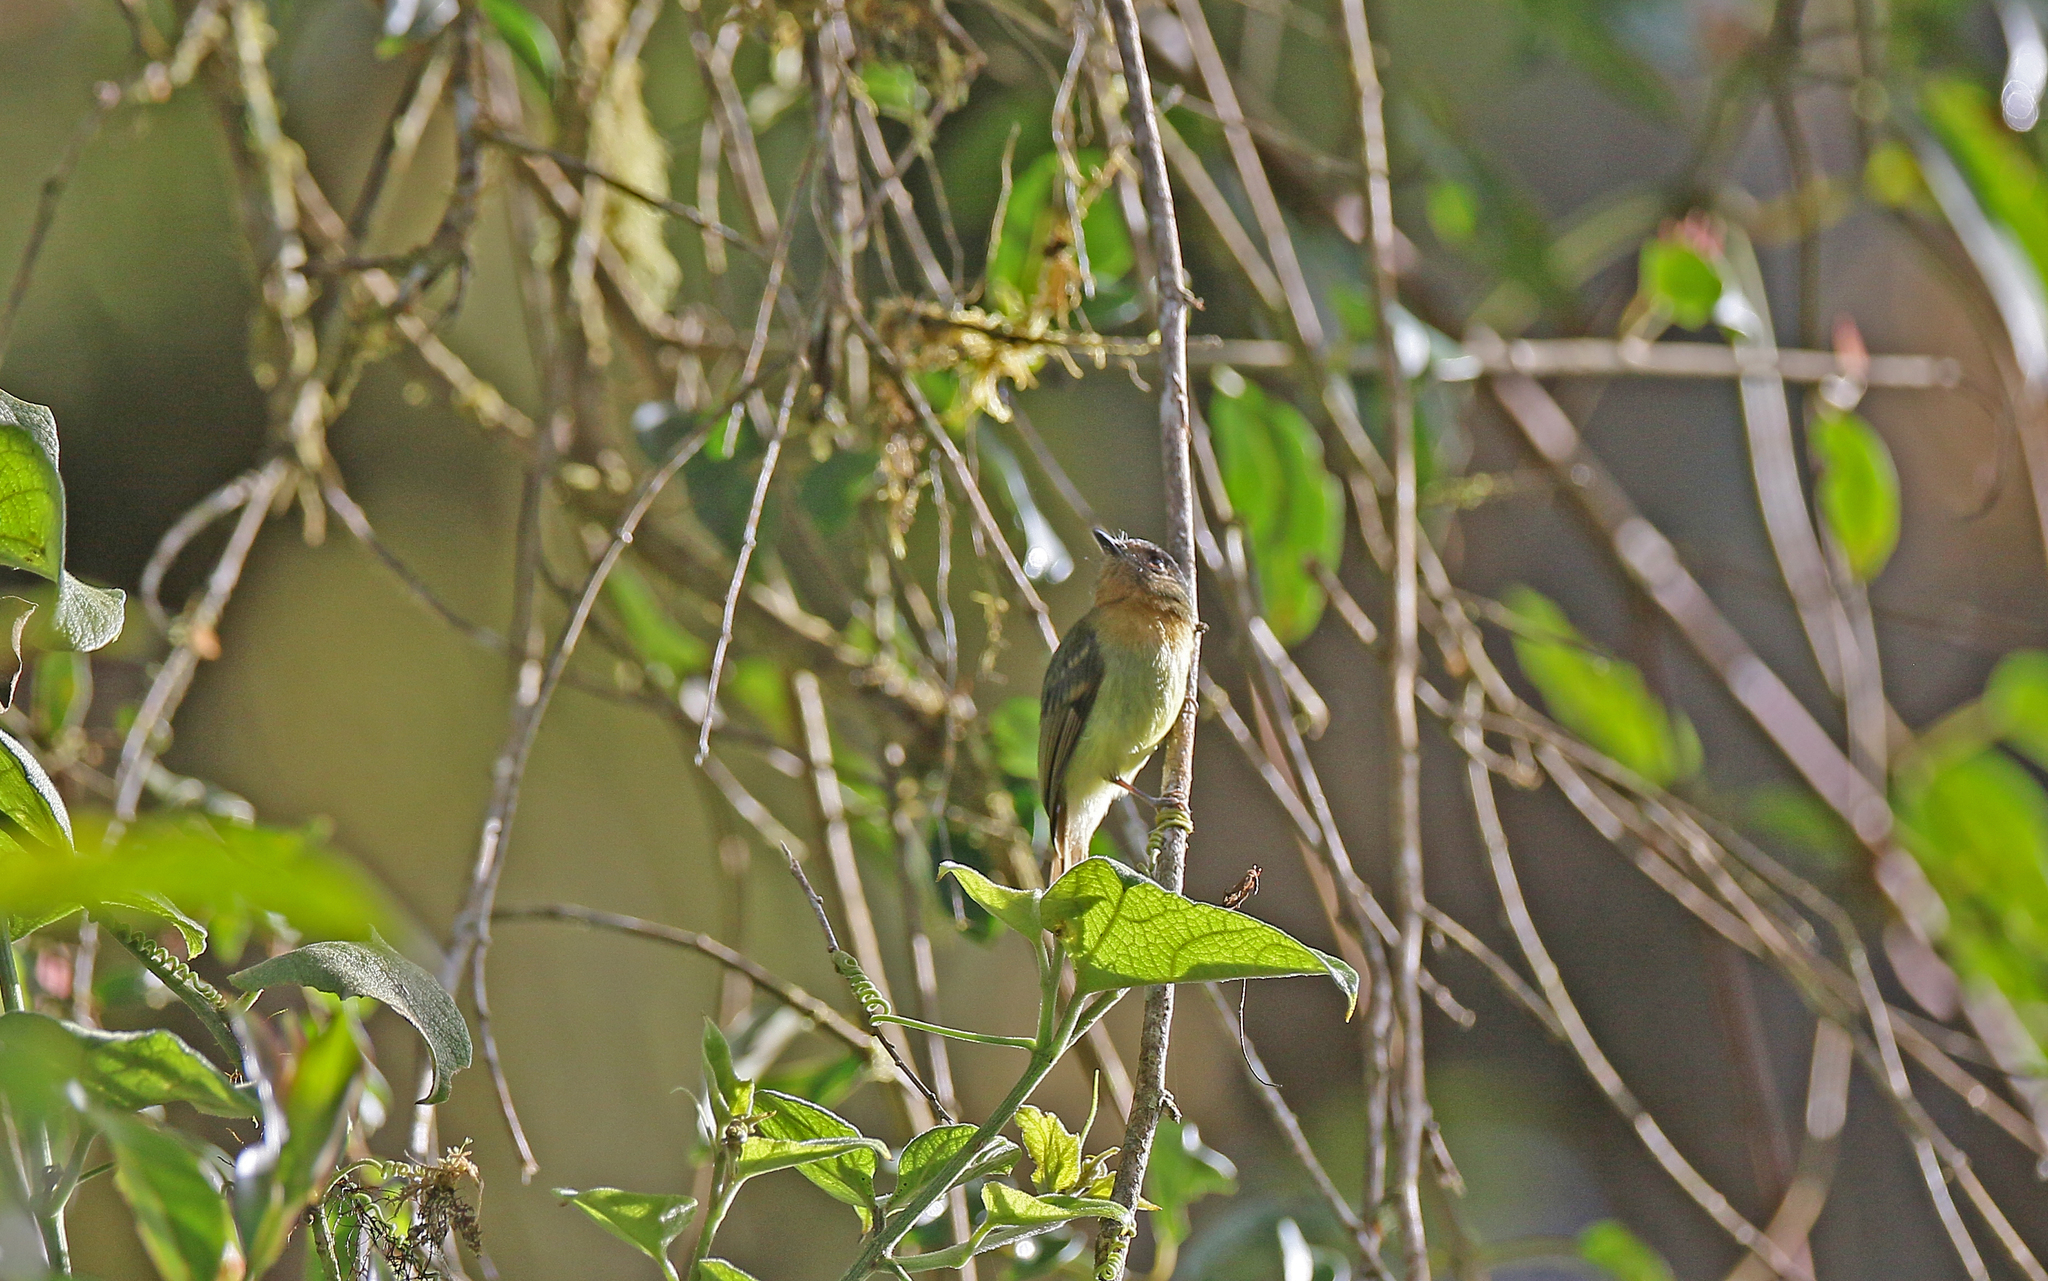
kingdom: Animalia
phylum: Chordata
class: Aves
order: Passeriformes
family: Tyrannidae
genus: Myiophobus
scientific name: Myiophobus pulcher
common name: Handsome flycatcher
